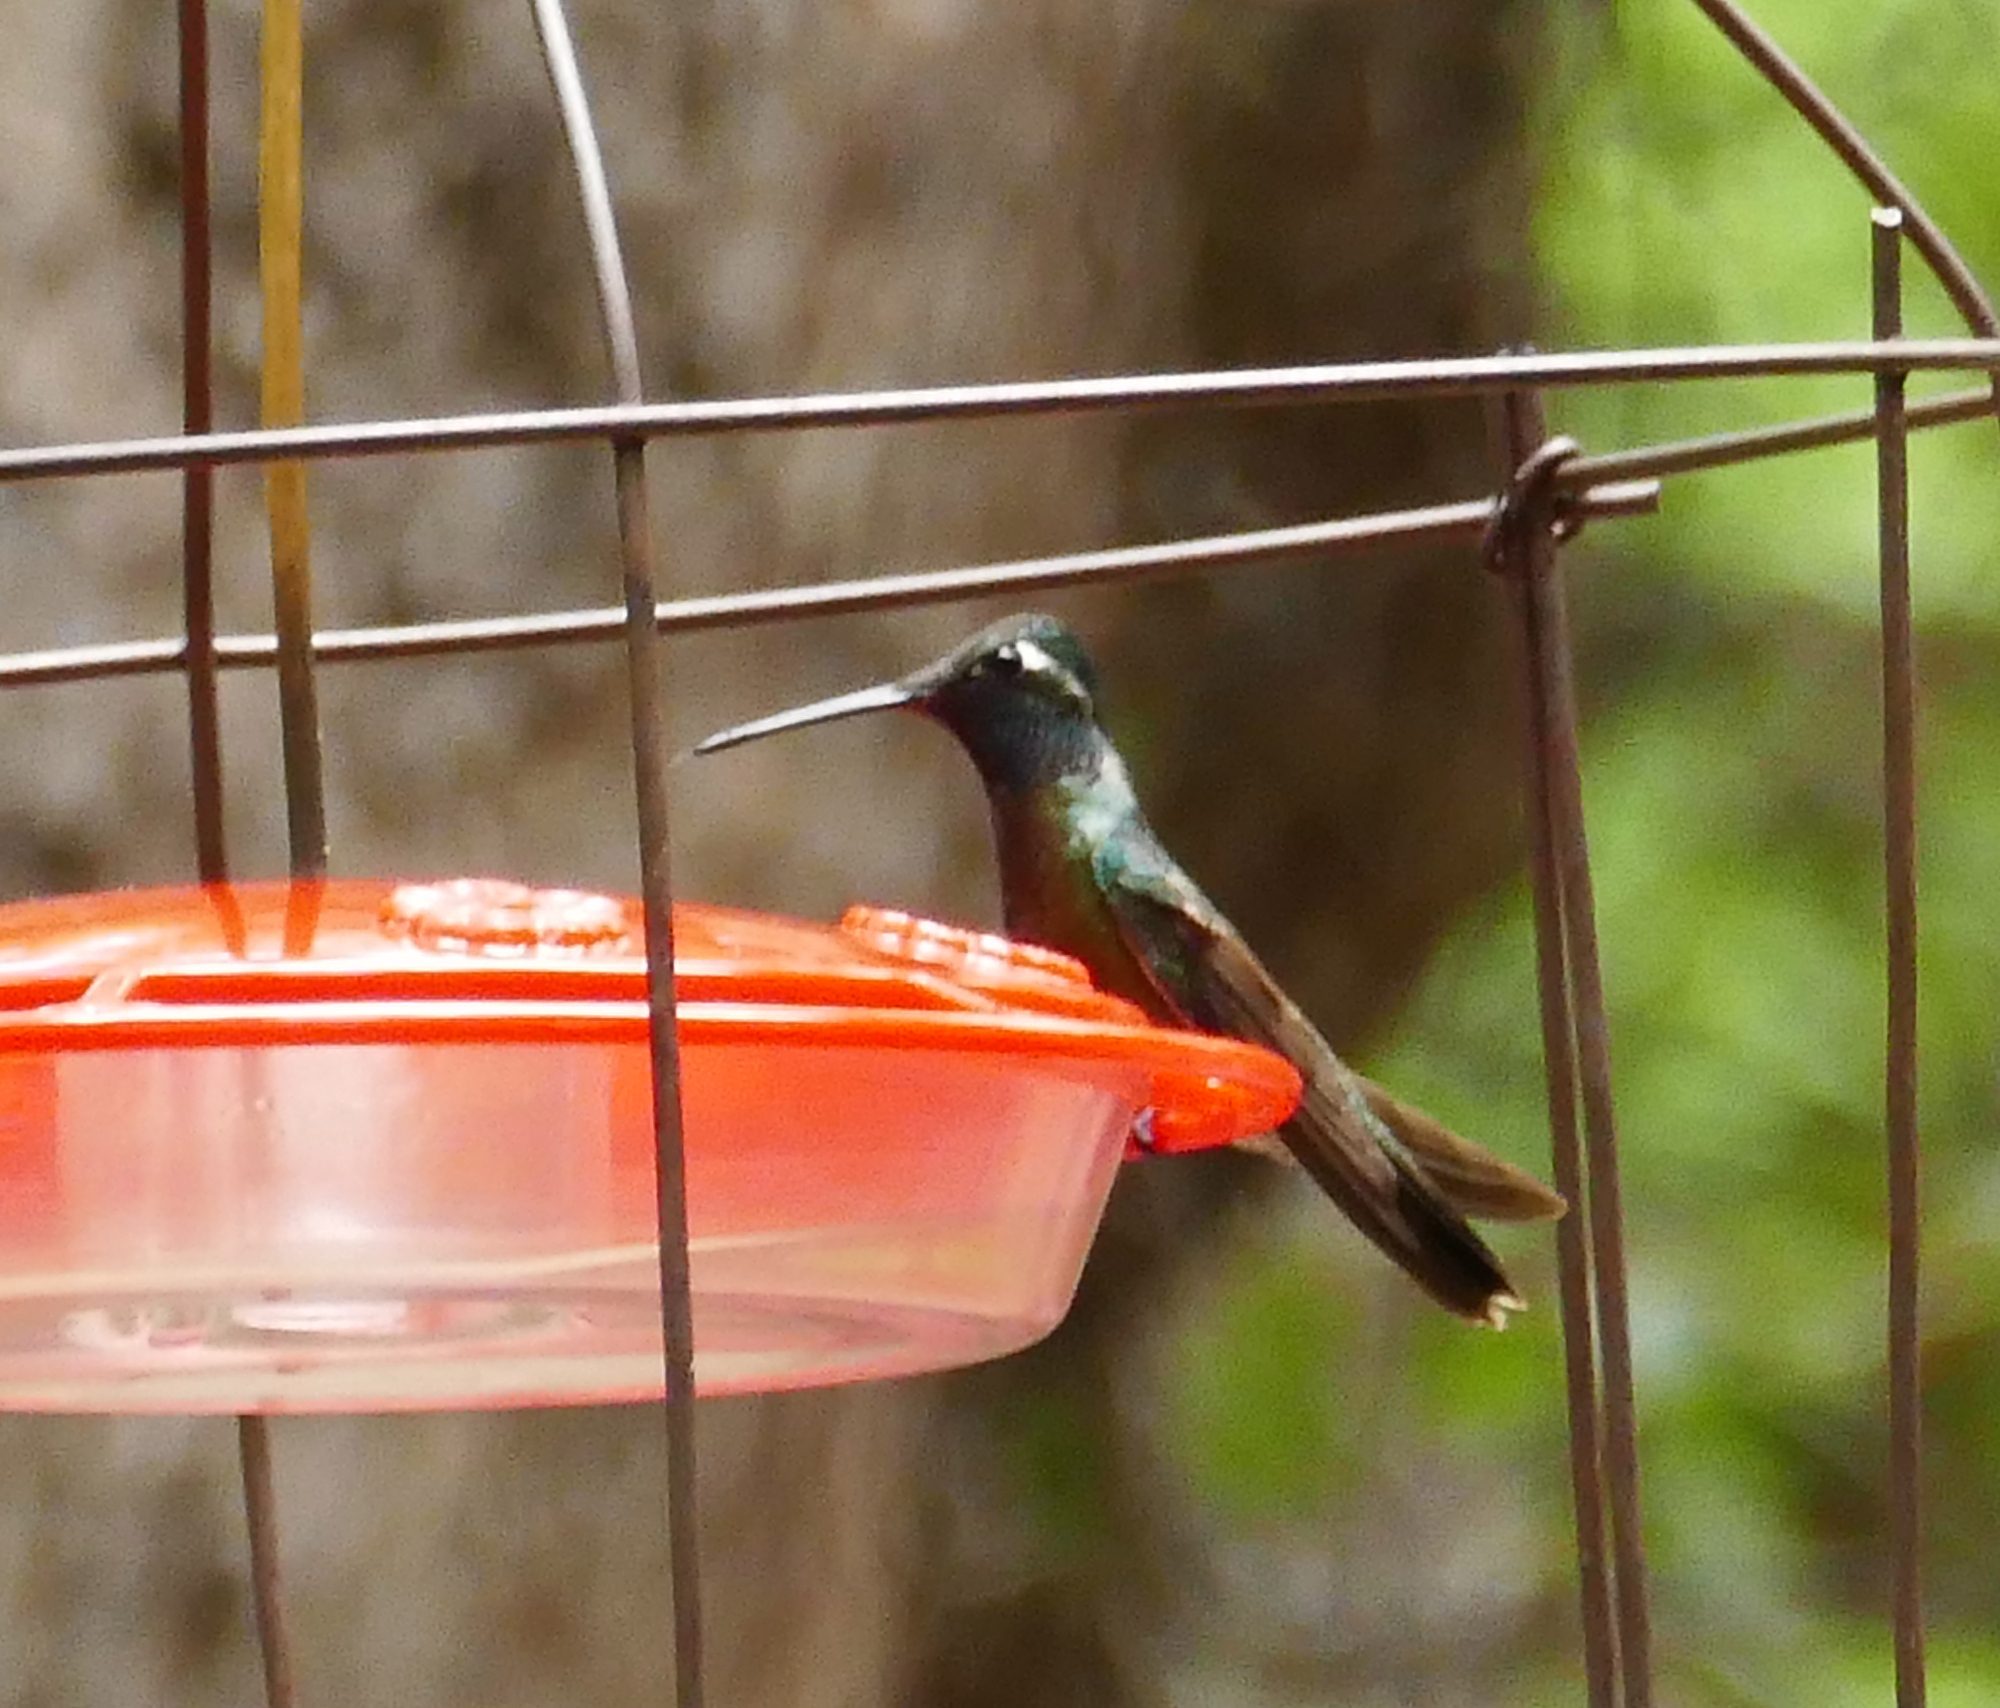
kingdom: Animalia
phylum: Chordata
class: Aves
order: Apodiformes
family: Trochilidae
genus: Eugenes
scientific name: Eugenes fulgens
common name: Magnificent hummingbird
